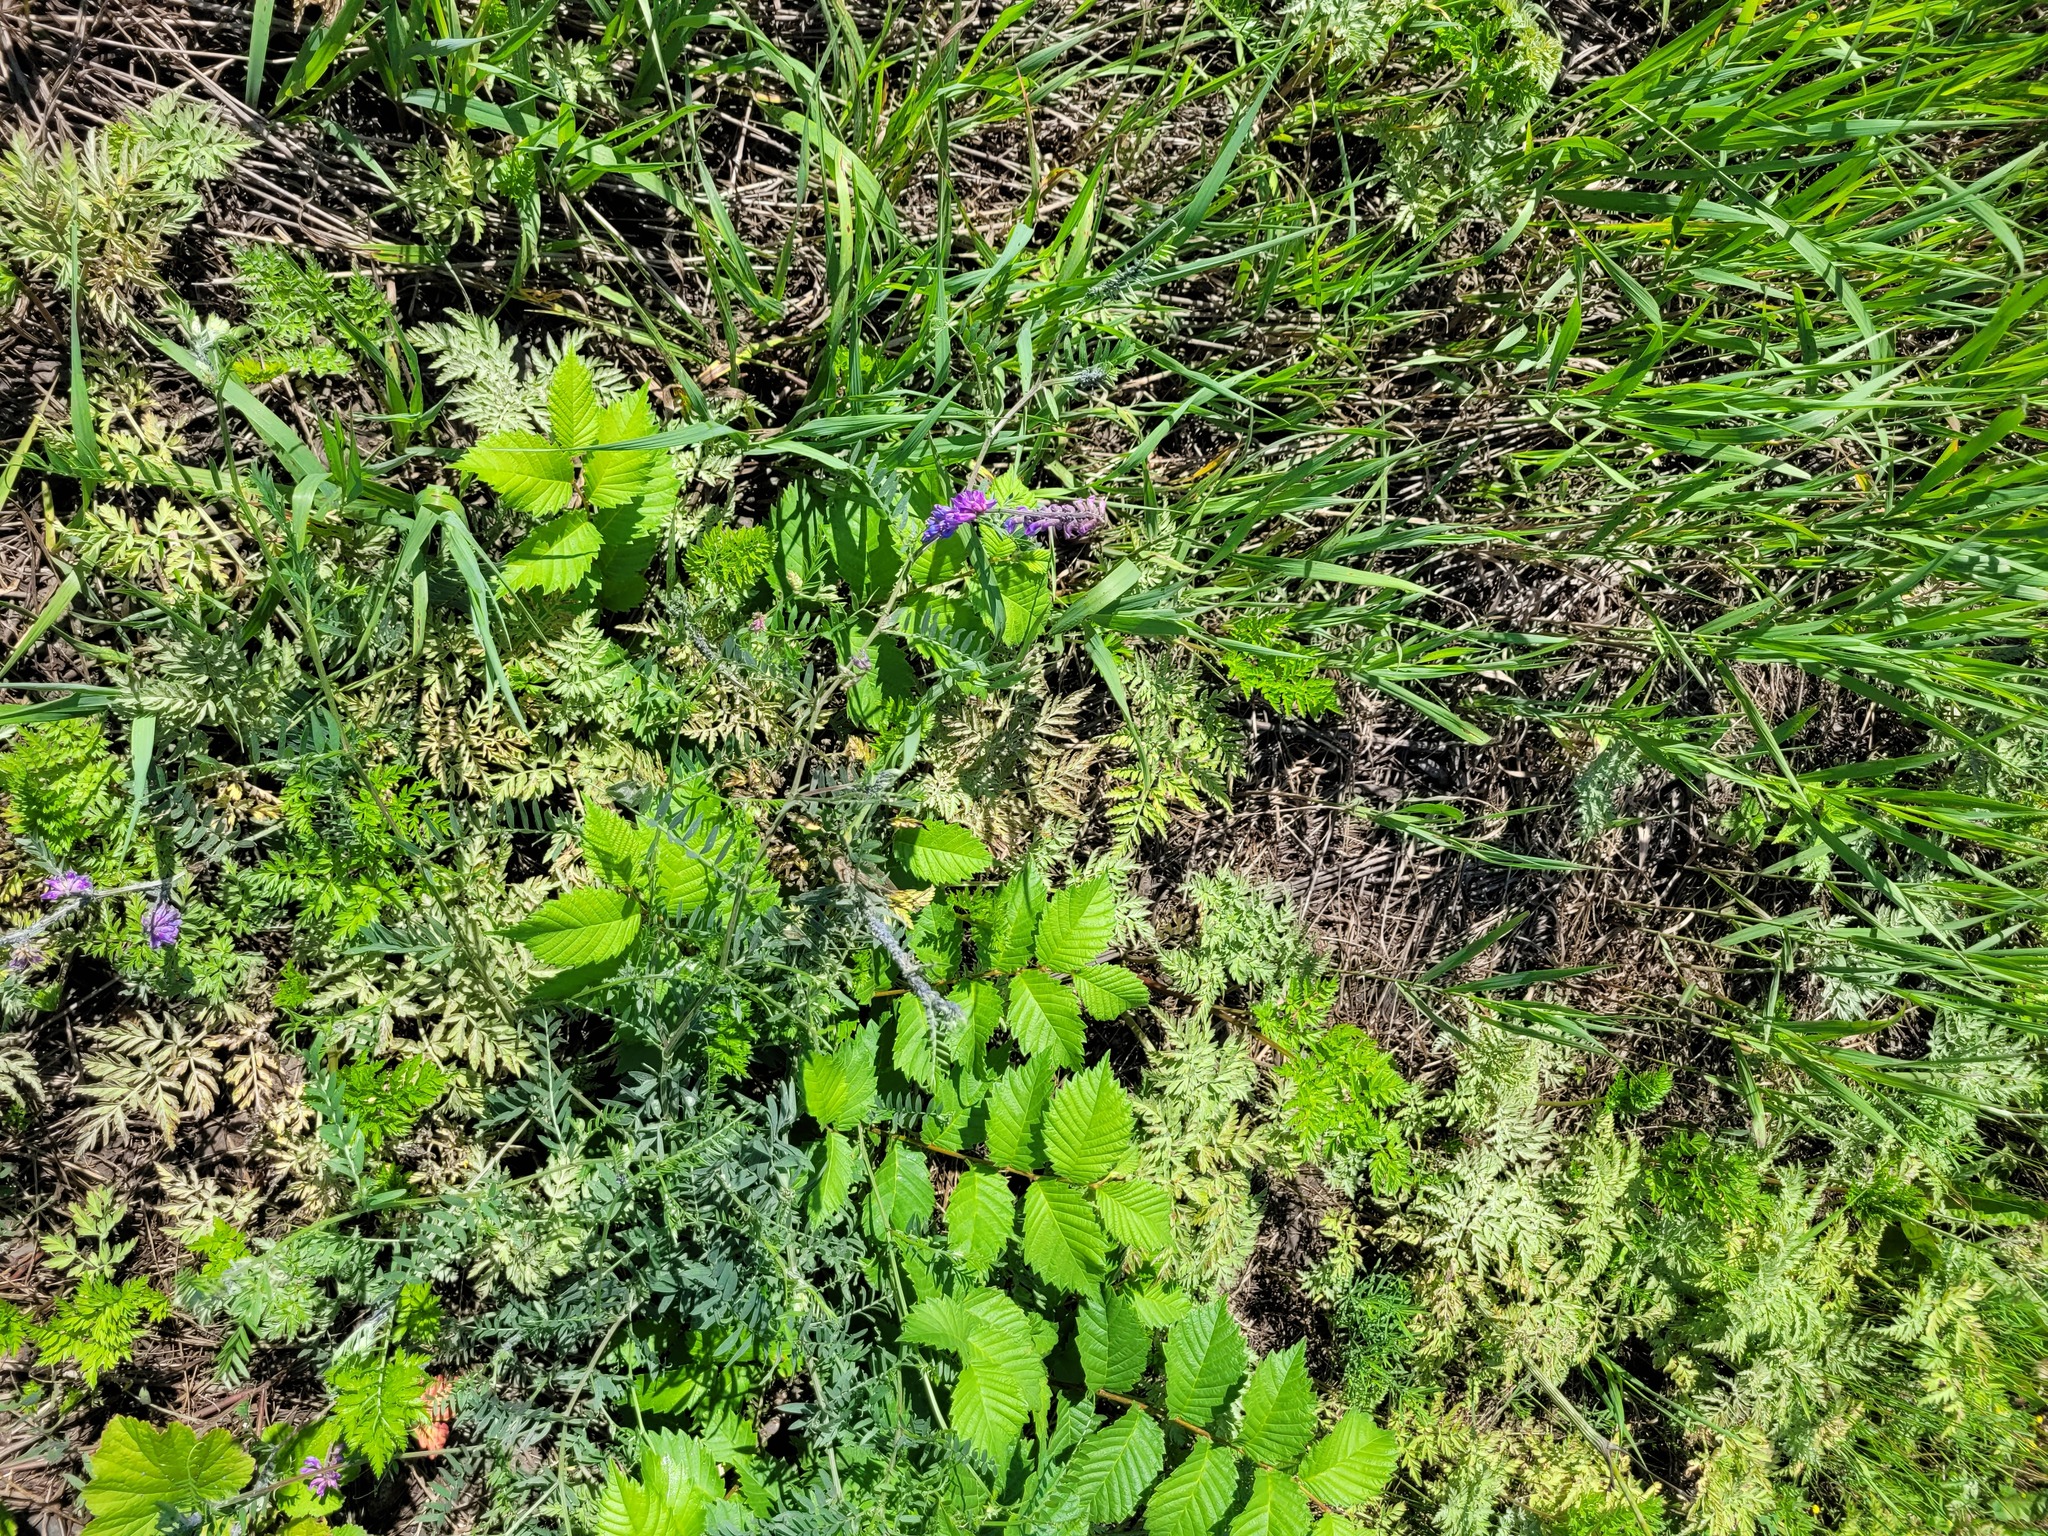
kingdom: Plantae
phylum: Tracheophyta
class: Magnoliopsida
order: Fabales
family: Fabaceae
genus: Vicia
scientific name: Vicia cracca
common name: Bird vetch
